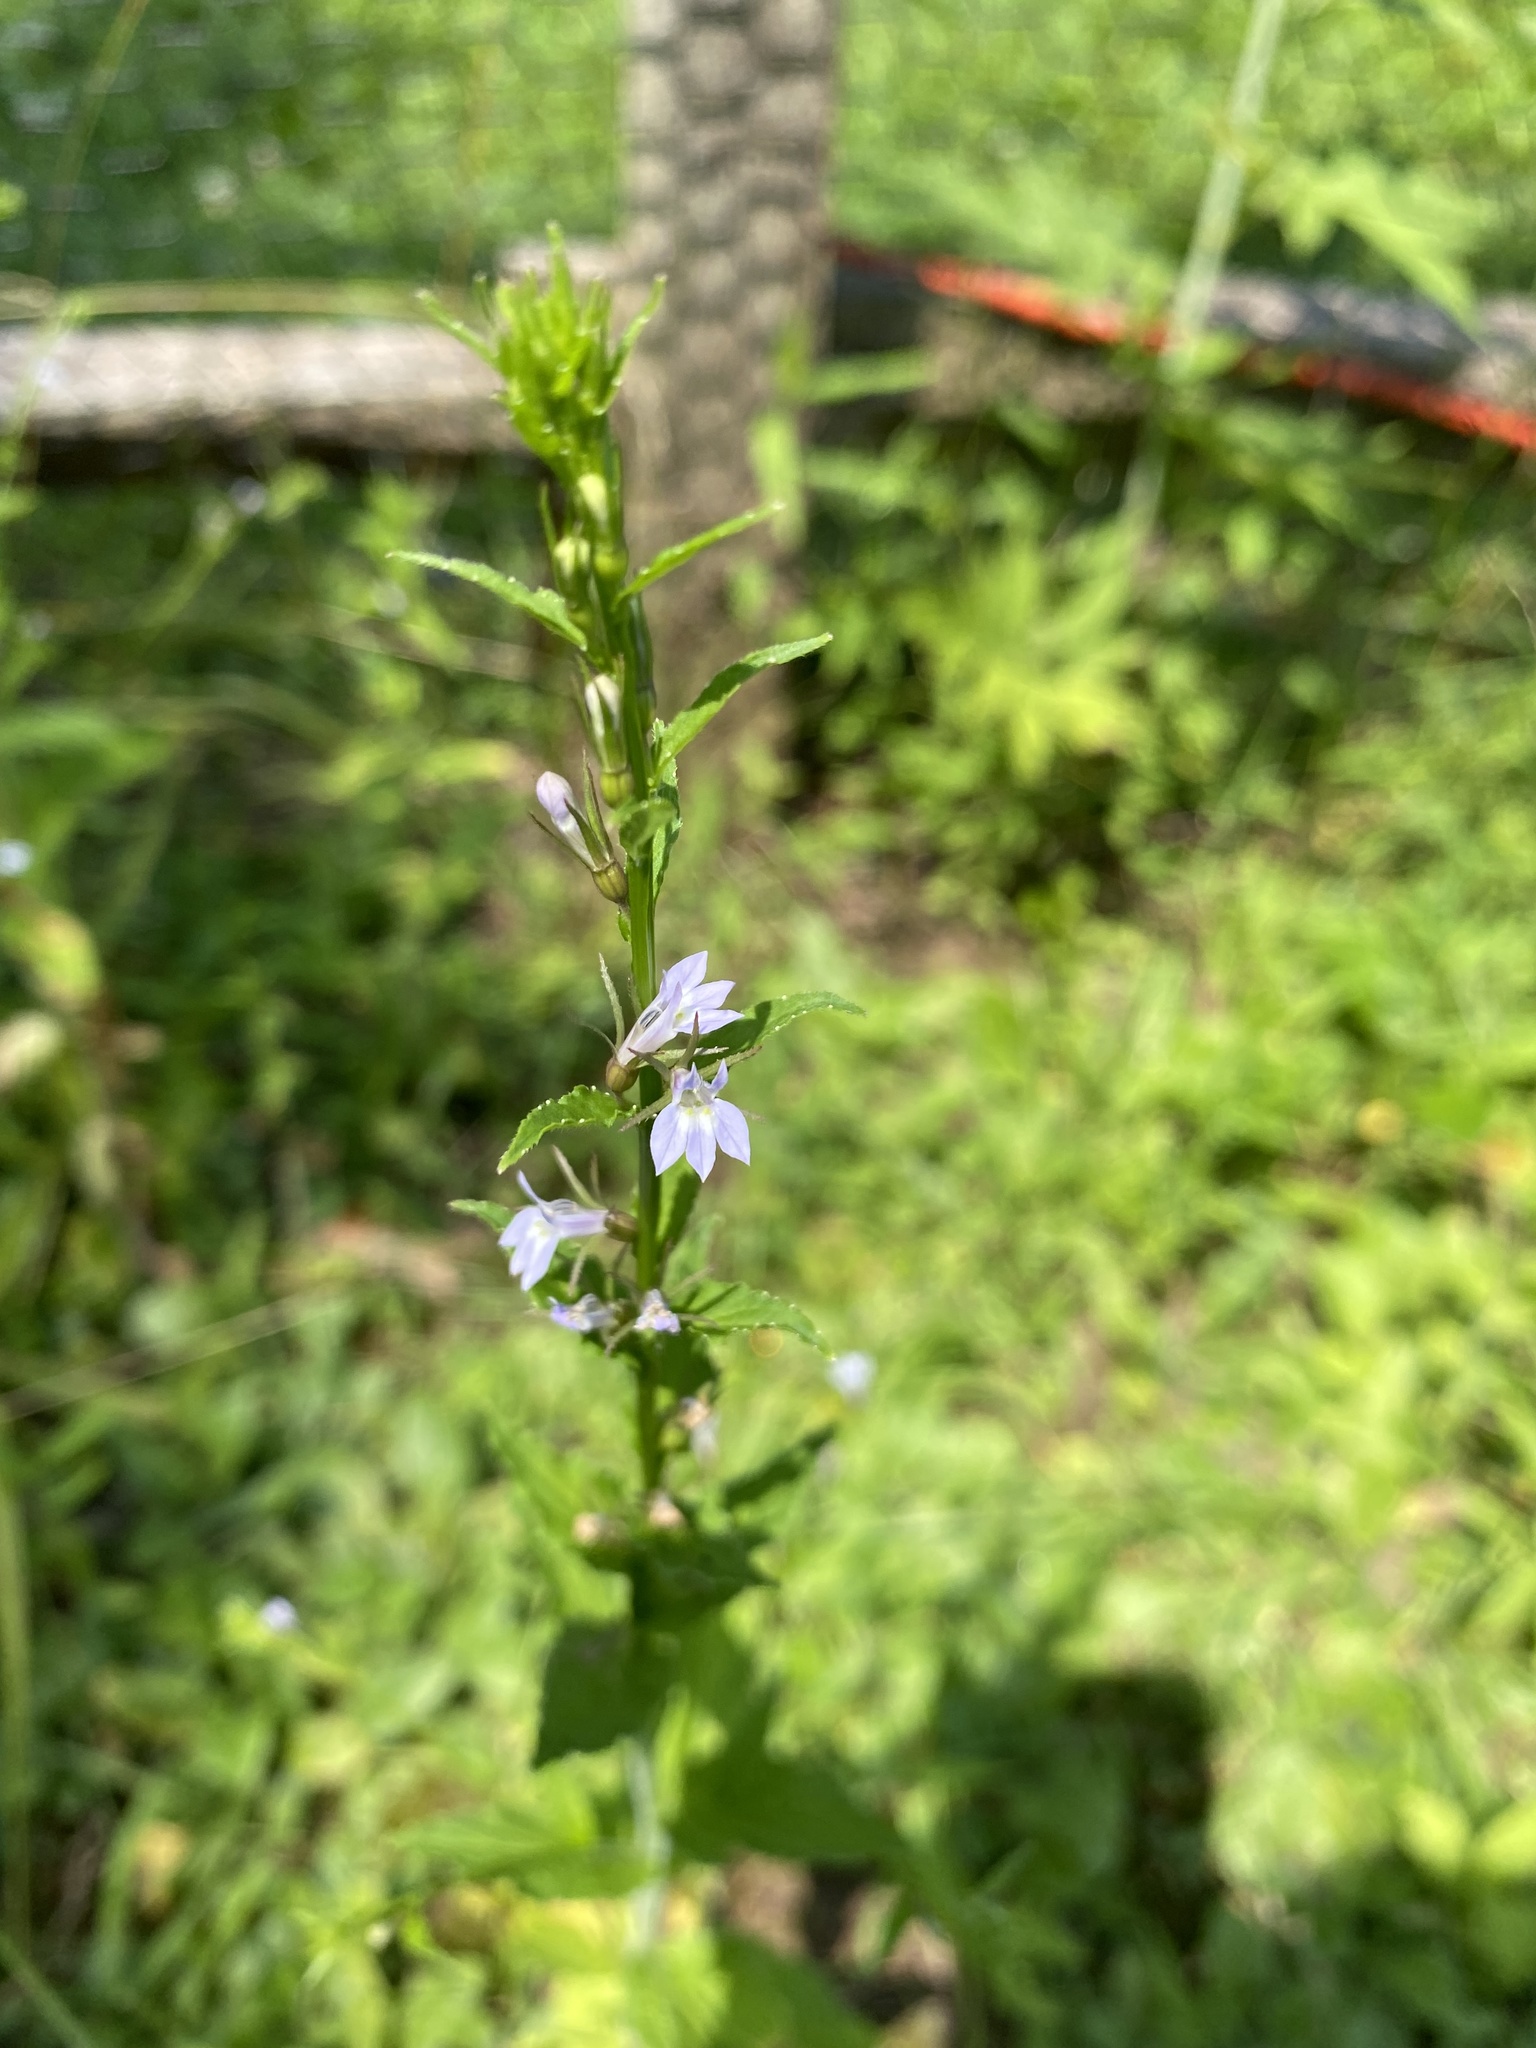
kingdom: Plantae
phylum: Tracheophyta
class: Magnoliopsida
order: Asterales
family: Campanulaceae
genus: Lobelia
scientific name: Lobelia inflata
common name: Indian tobacco
